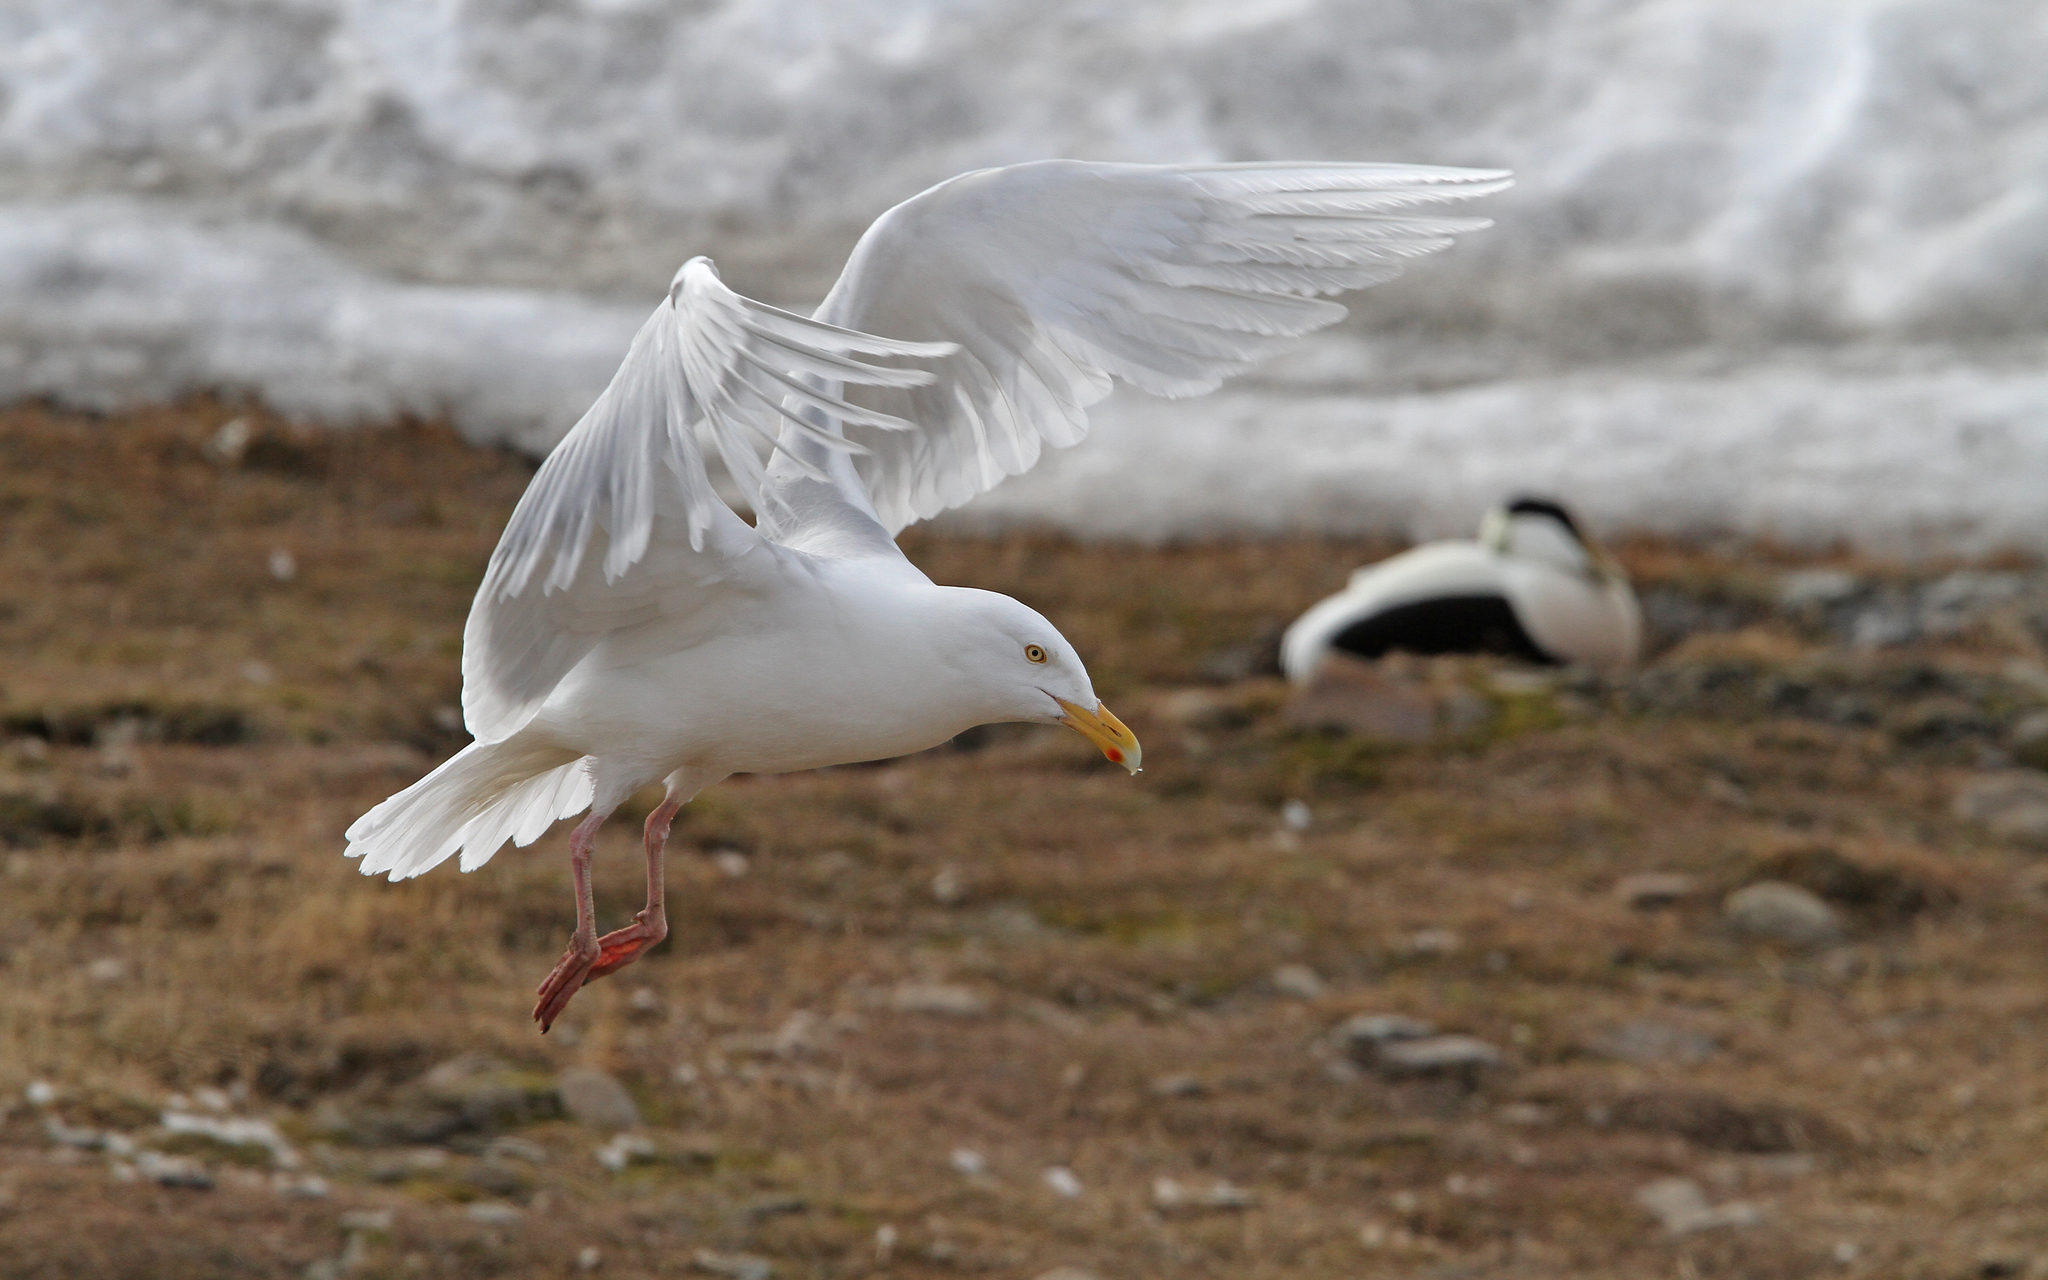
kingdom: Animalia
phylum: Chordata
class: Aves
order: Charadriiformes
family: Laridae
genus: Larus
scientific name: Larus hyperboreus
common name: Glaucous gull
